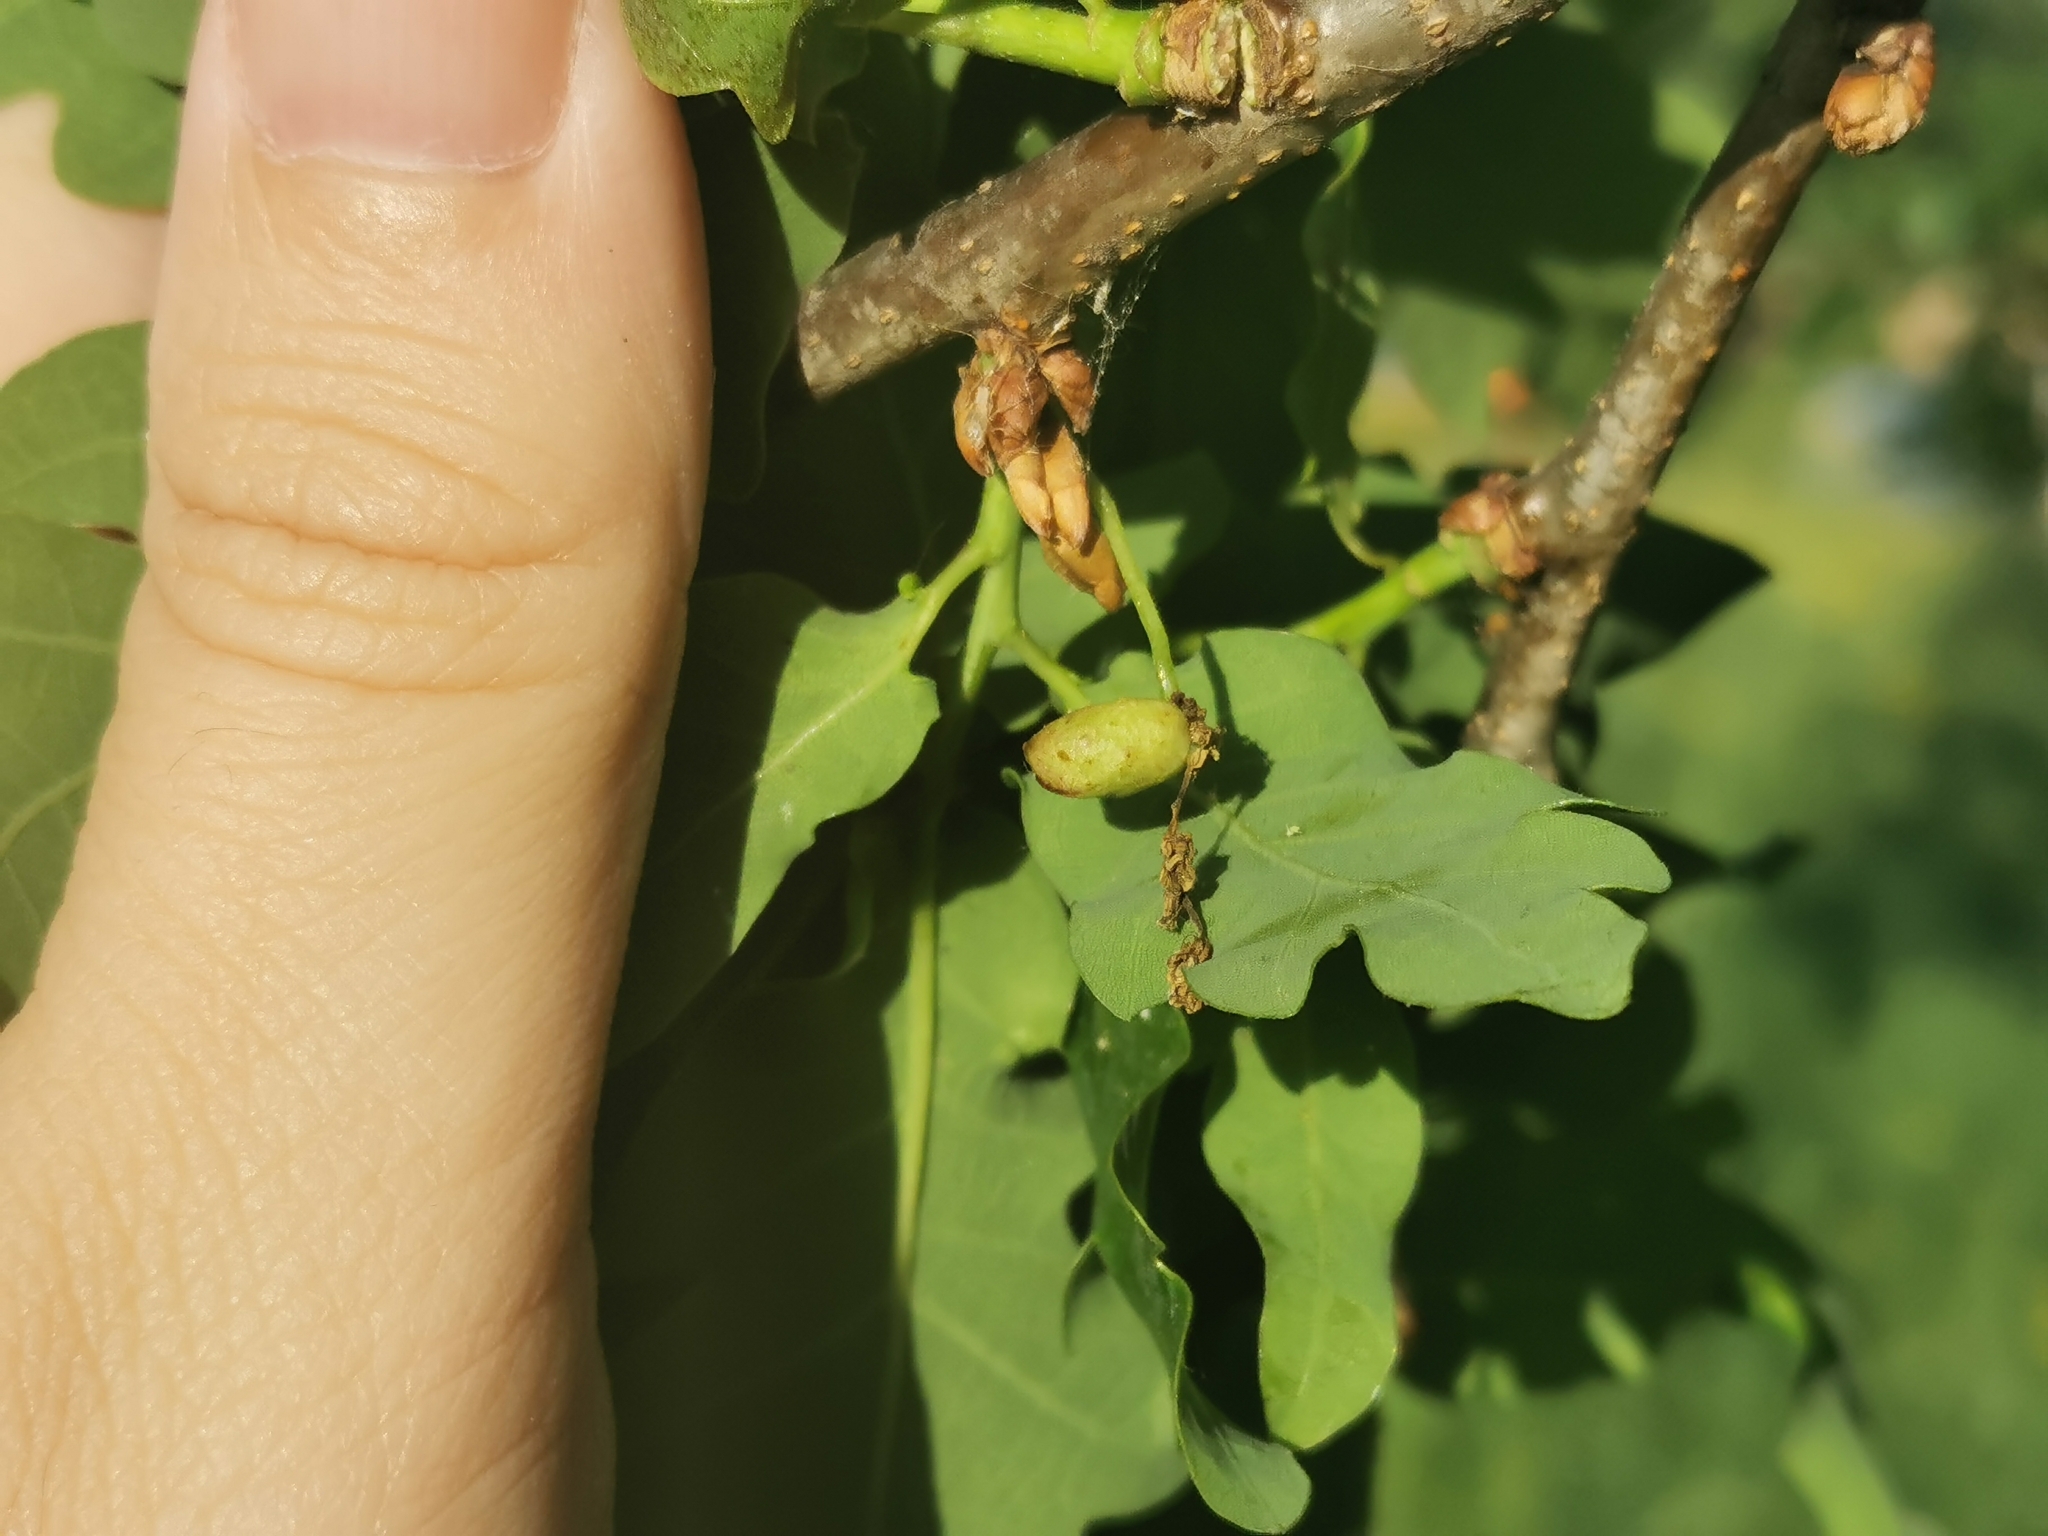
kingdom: Animalia
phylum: Arthropoda
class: Insecta
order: Hymenoptera
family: Cynipidae
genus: Andricus
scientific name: Andricus quadrilineatus
